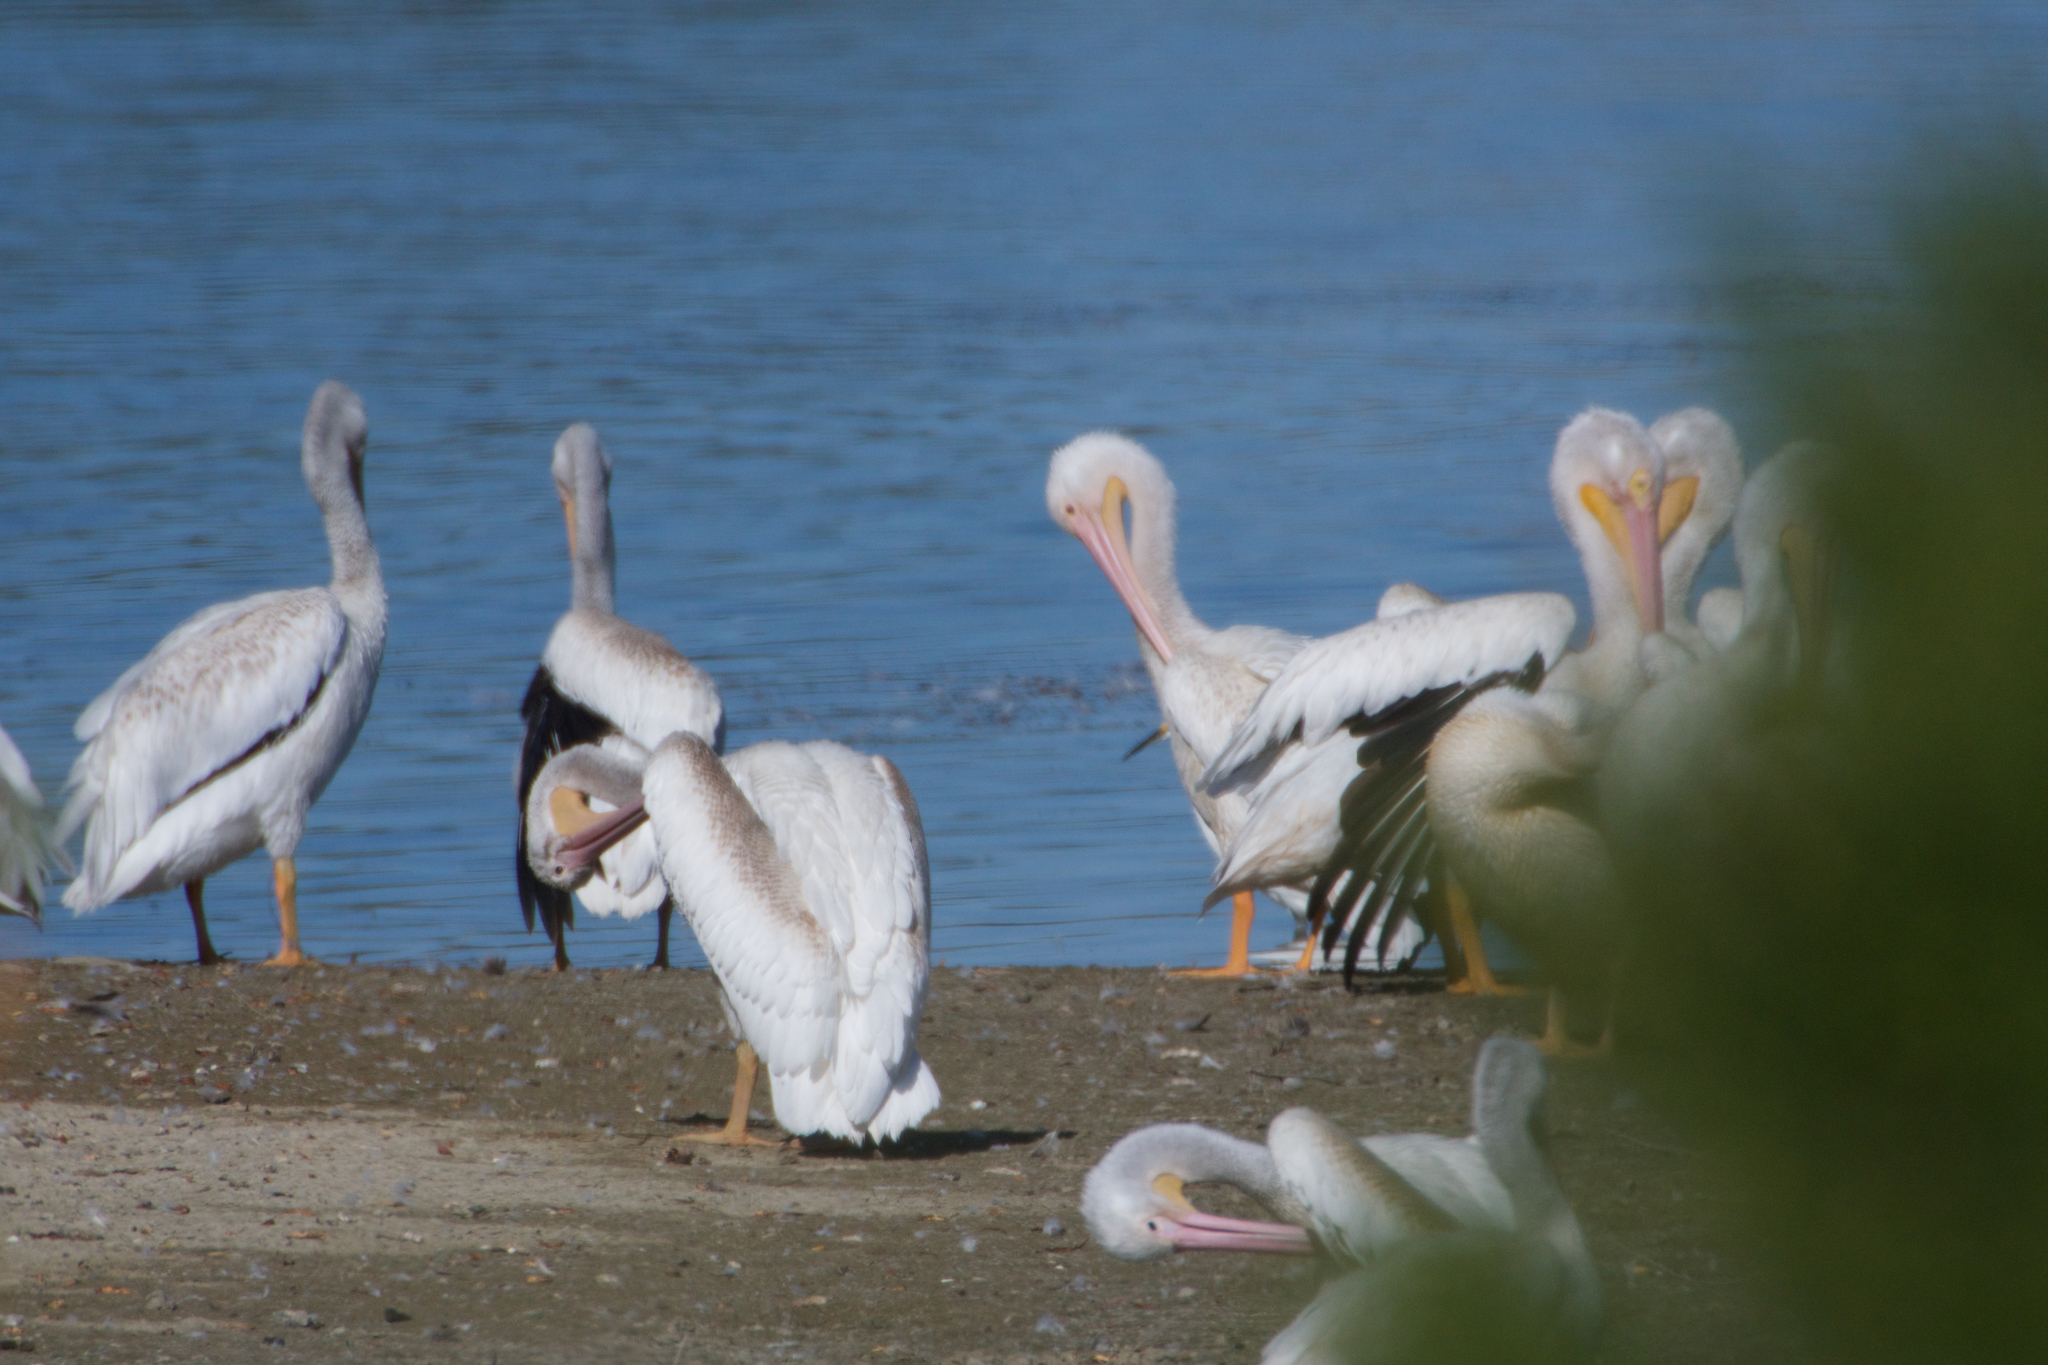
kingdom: Animalia
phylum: Chordata
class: Aves
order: Pelecaniformes
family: Pelecanidae
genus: Pelecanus
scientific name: Pelecanus erythrorhynchos
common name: American white pelican
